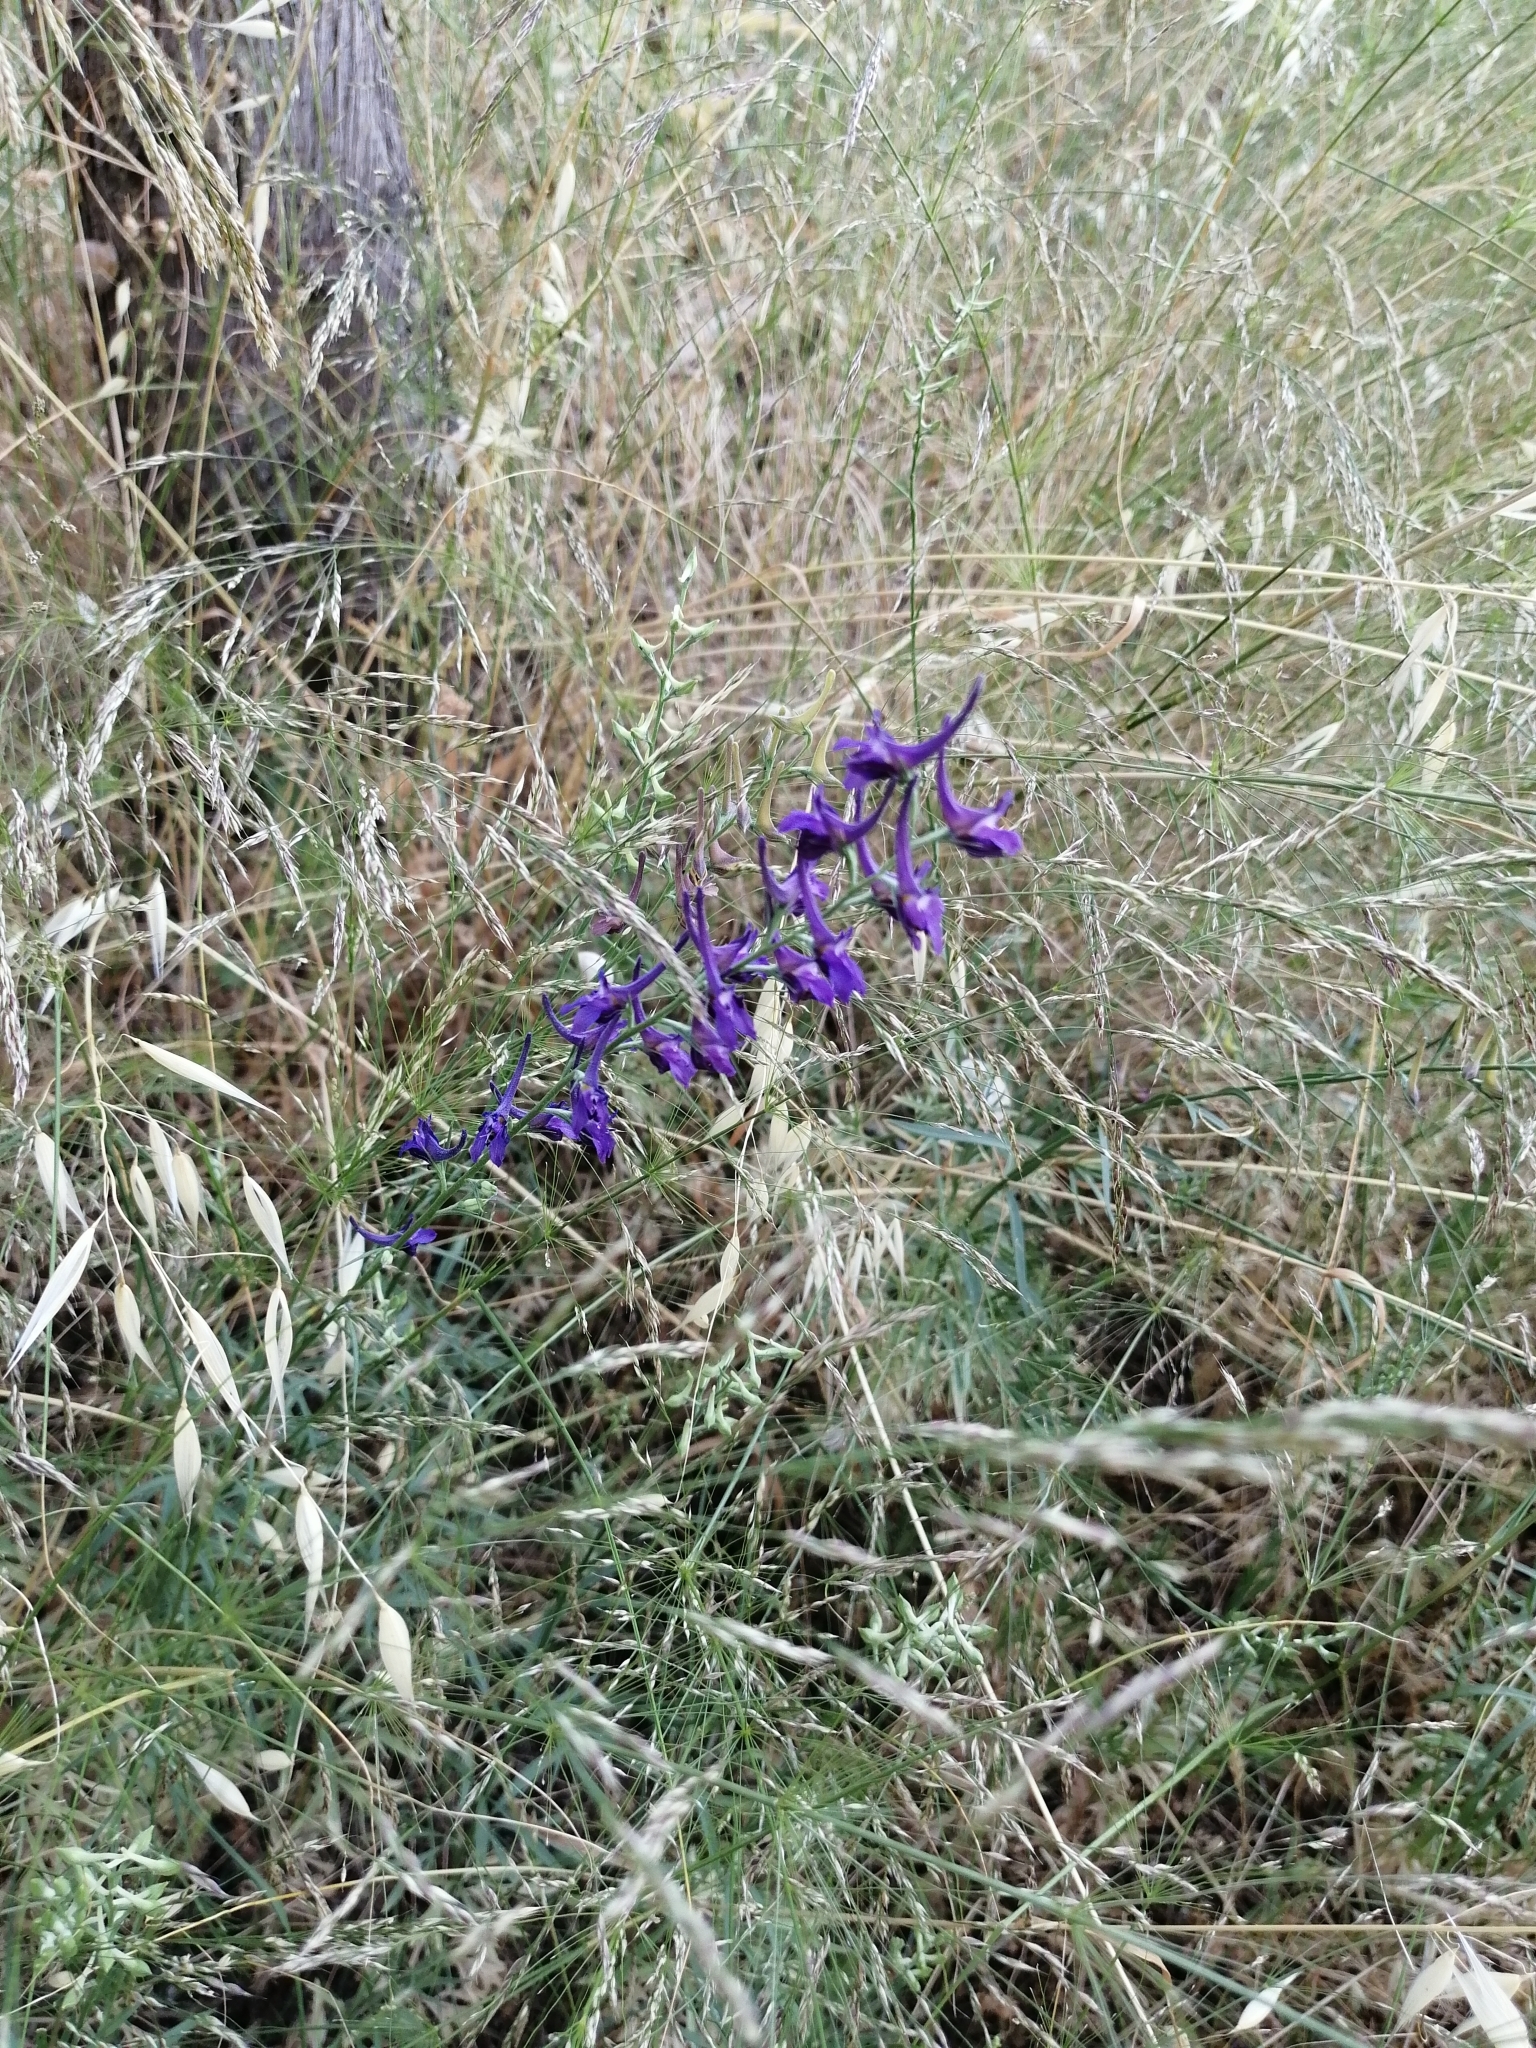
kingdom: Plantae
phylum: Tracheophyta
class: Magnoliopsida
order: Ranunculales
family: Ranunculaceae
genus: Delphinium
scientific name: Delphinium peregrinum
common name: Violet larkspur
